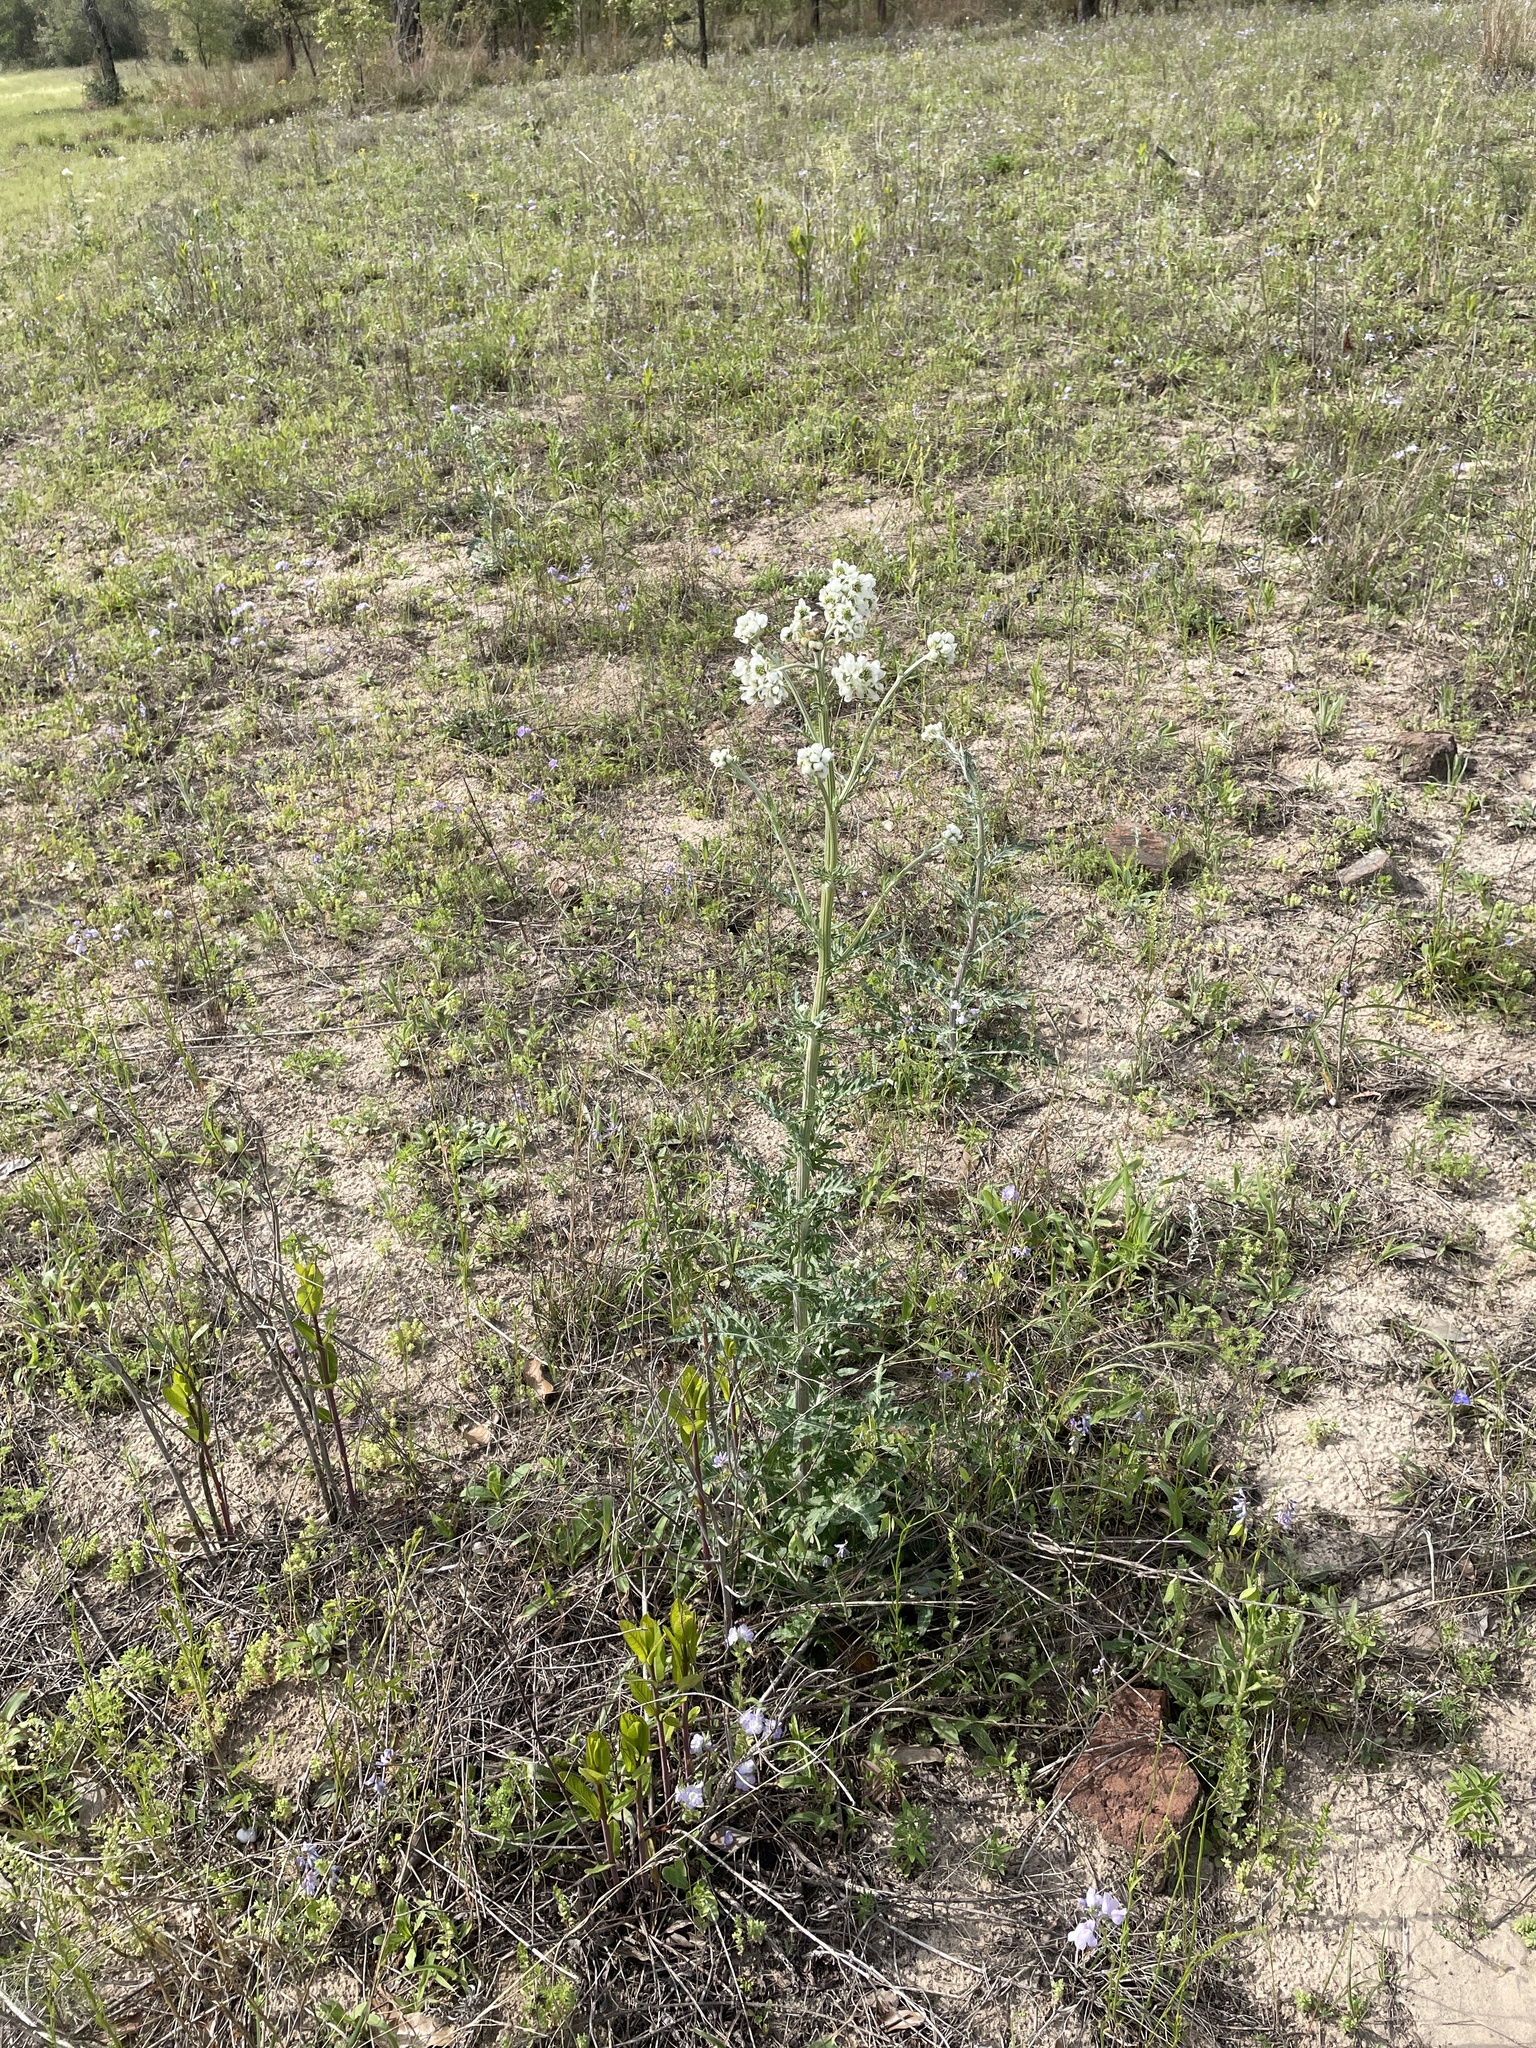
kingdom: Plantae
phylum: Tracheophyta
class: Magnoliopsida
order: Asterales
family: Asteraceae
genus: Hymenopappus
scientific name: Hymenopappus artemisiifolius
